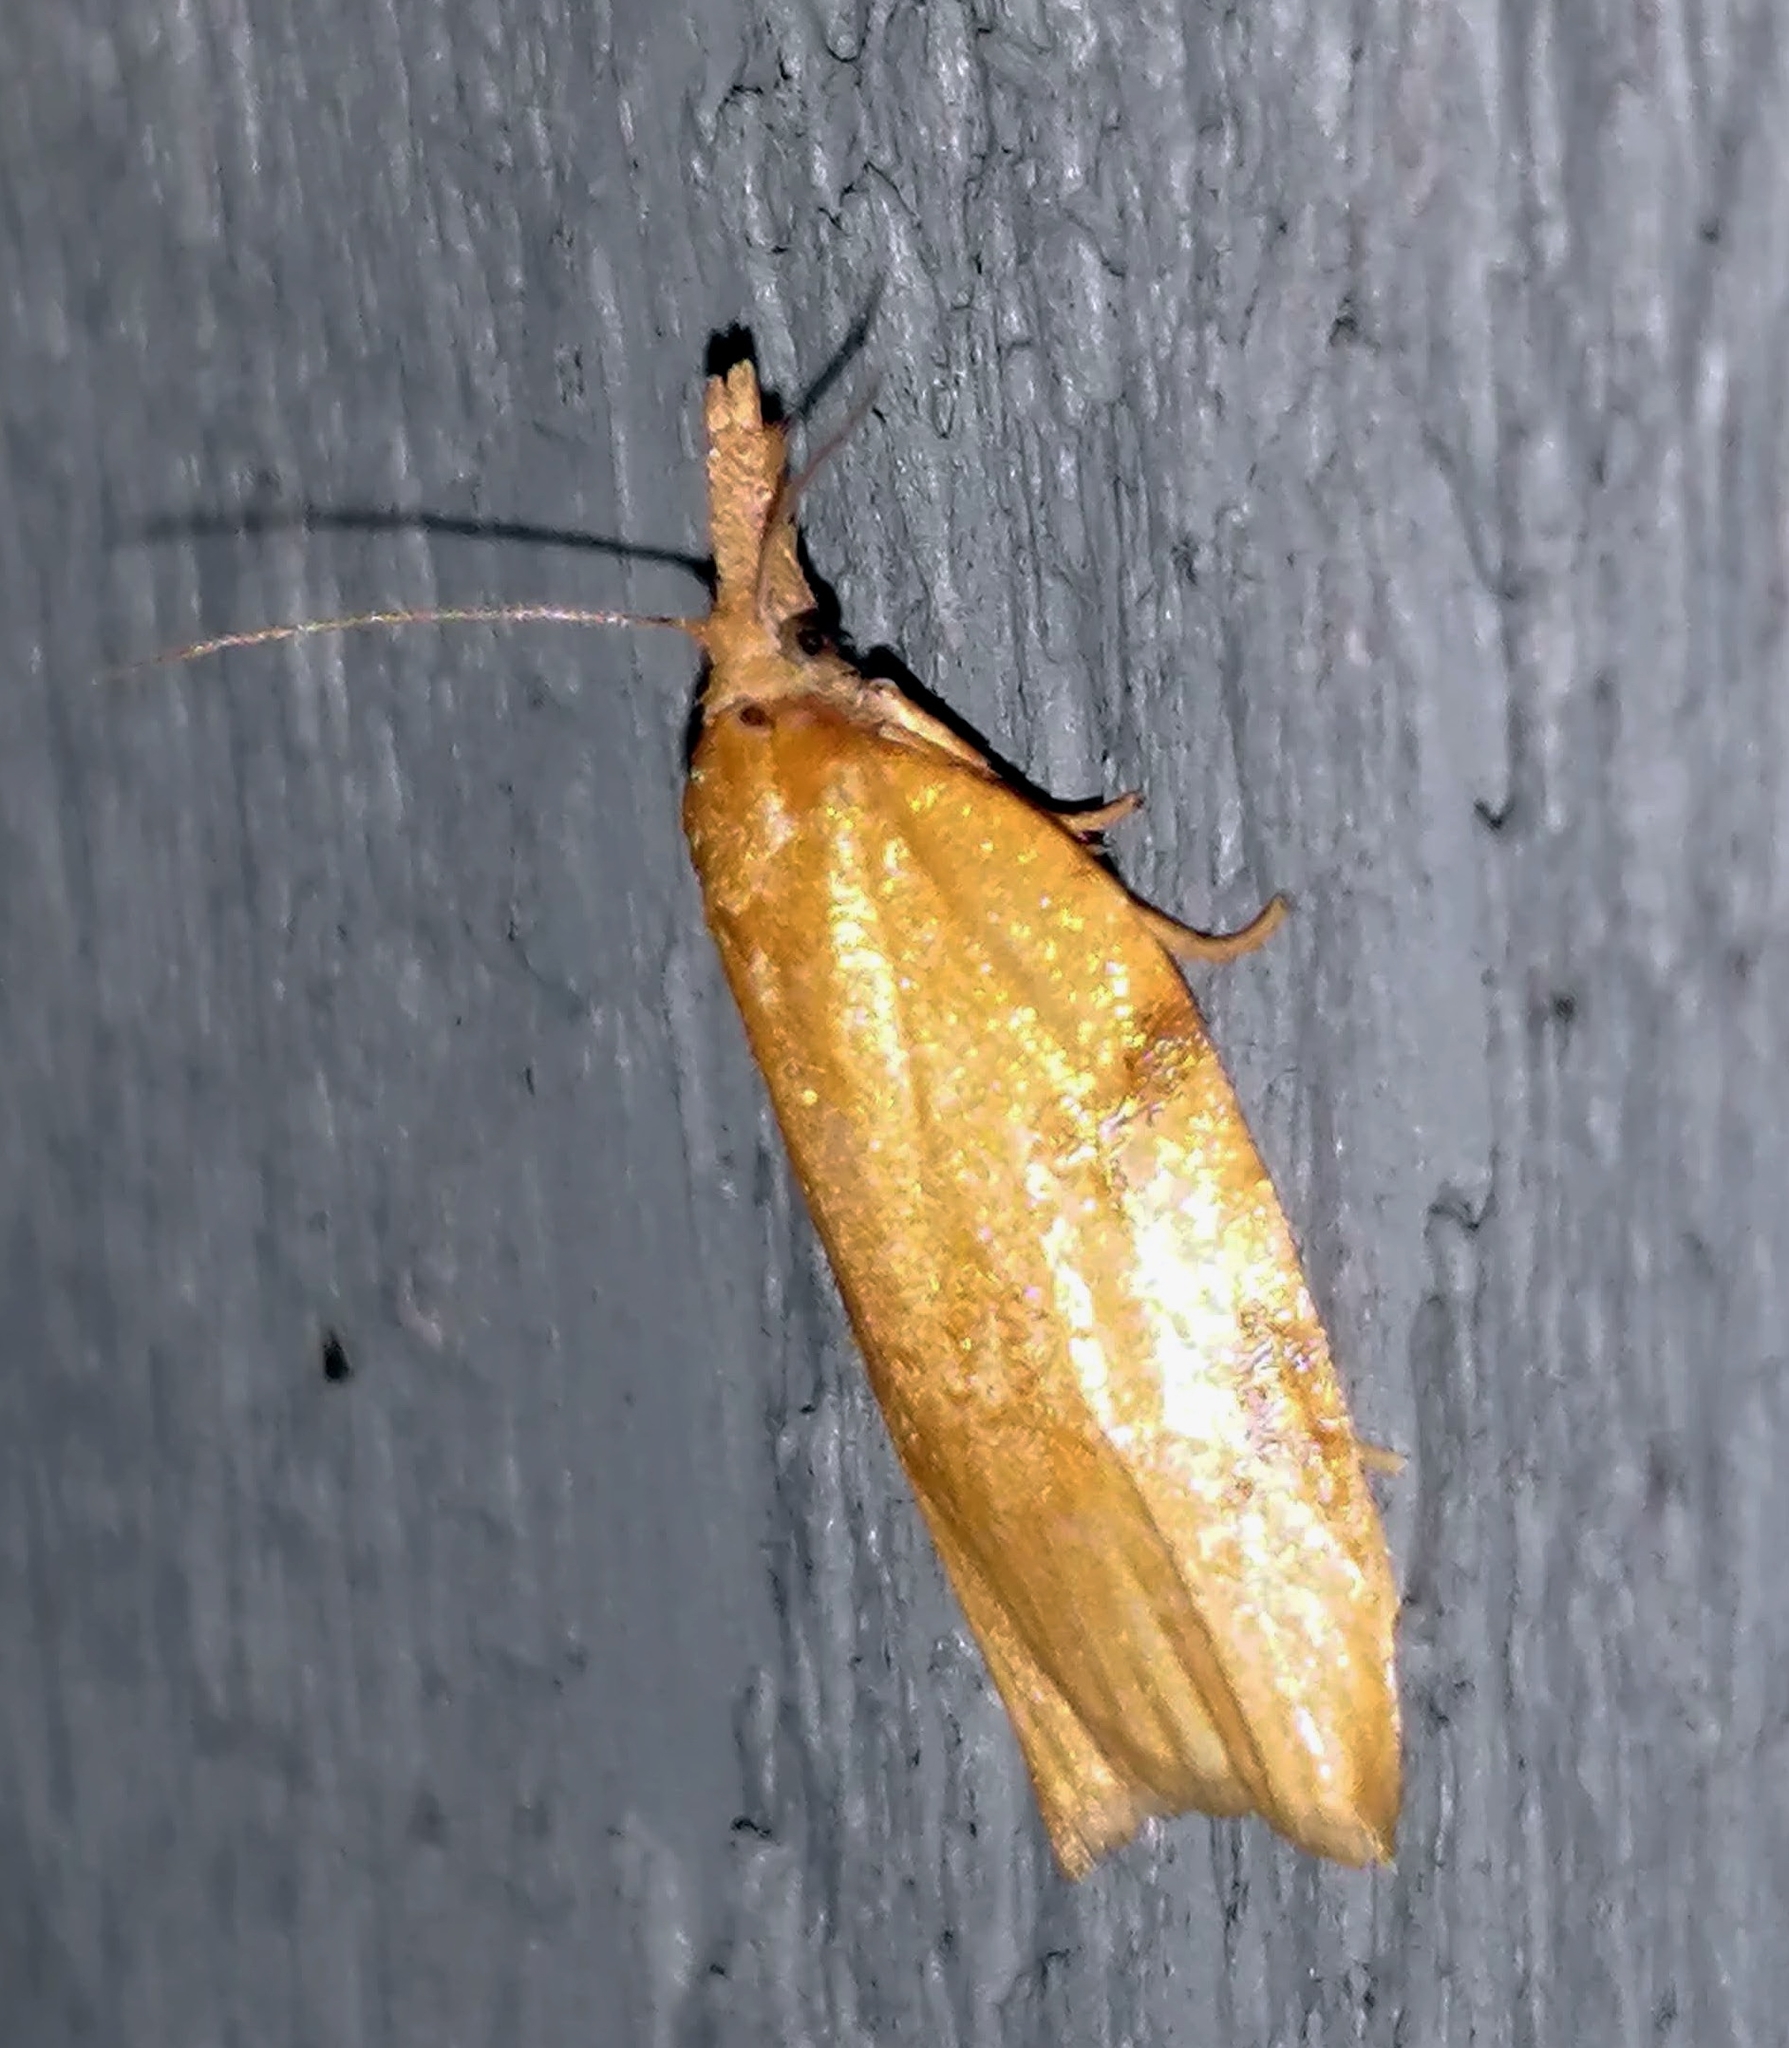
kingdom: Animalia
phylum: Arthropoda
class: Insecta
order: Lepidoptera
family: Tortricidae
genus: Sparganothis
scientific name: Sparganothis unifasciana
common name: One-lined sparganothis moth
